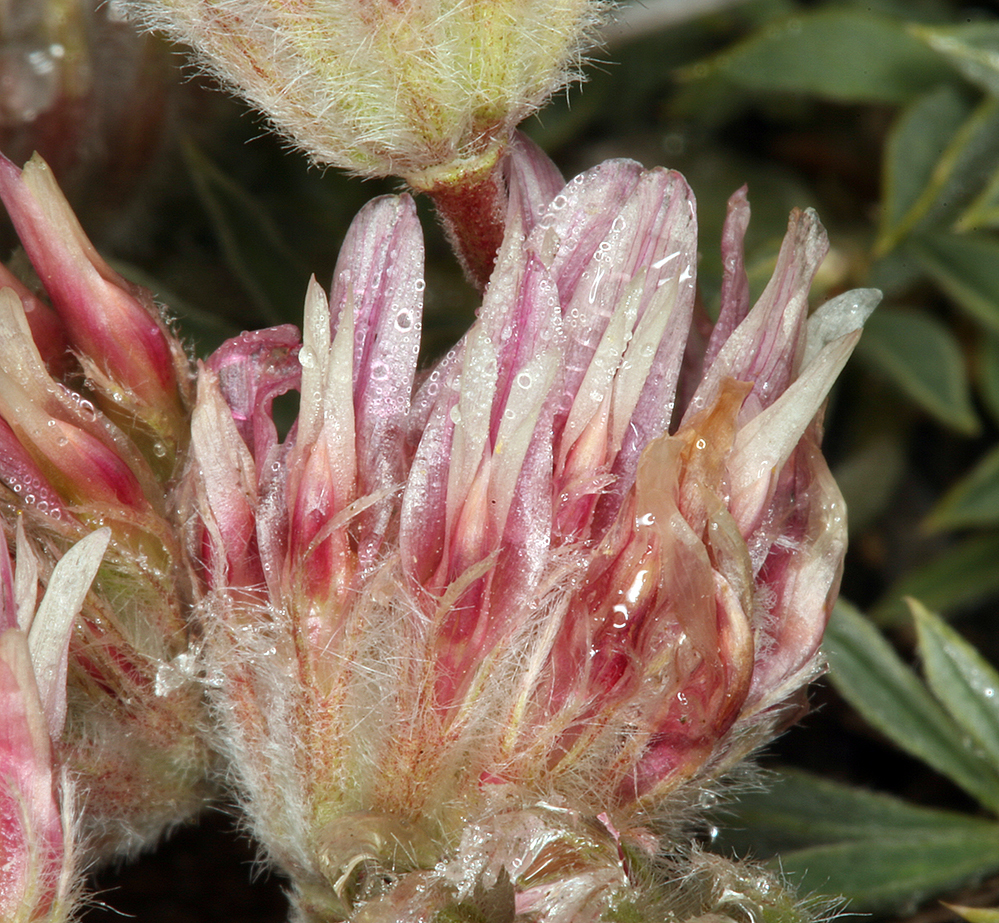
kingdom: Plantae
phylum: Tracheophyta
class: Magnoliopsida
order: Fabales
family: Fabaceae
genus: Trifolium
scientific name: Trifolium andersonii
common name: Anderson's clover
